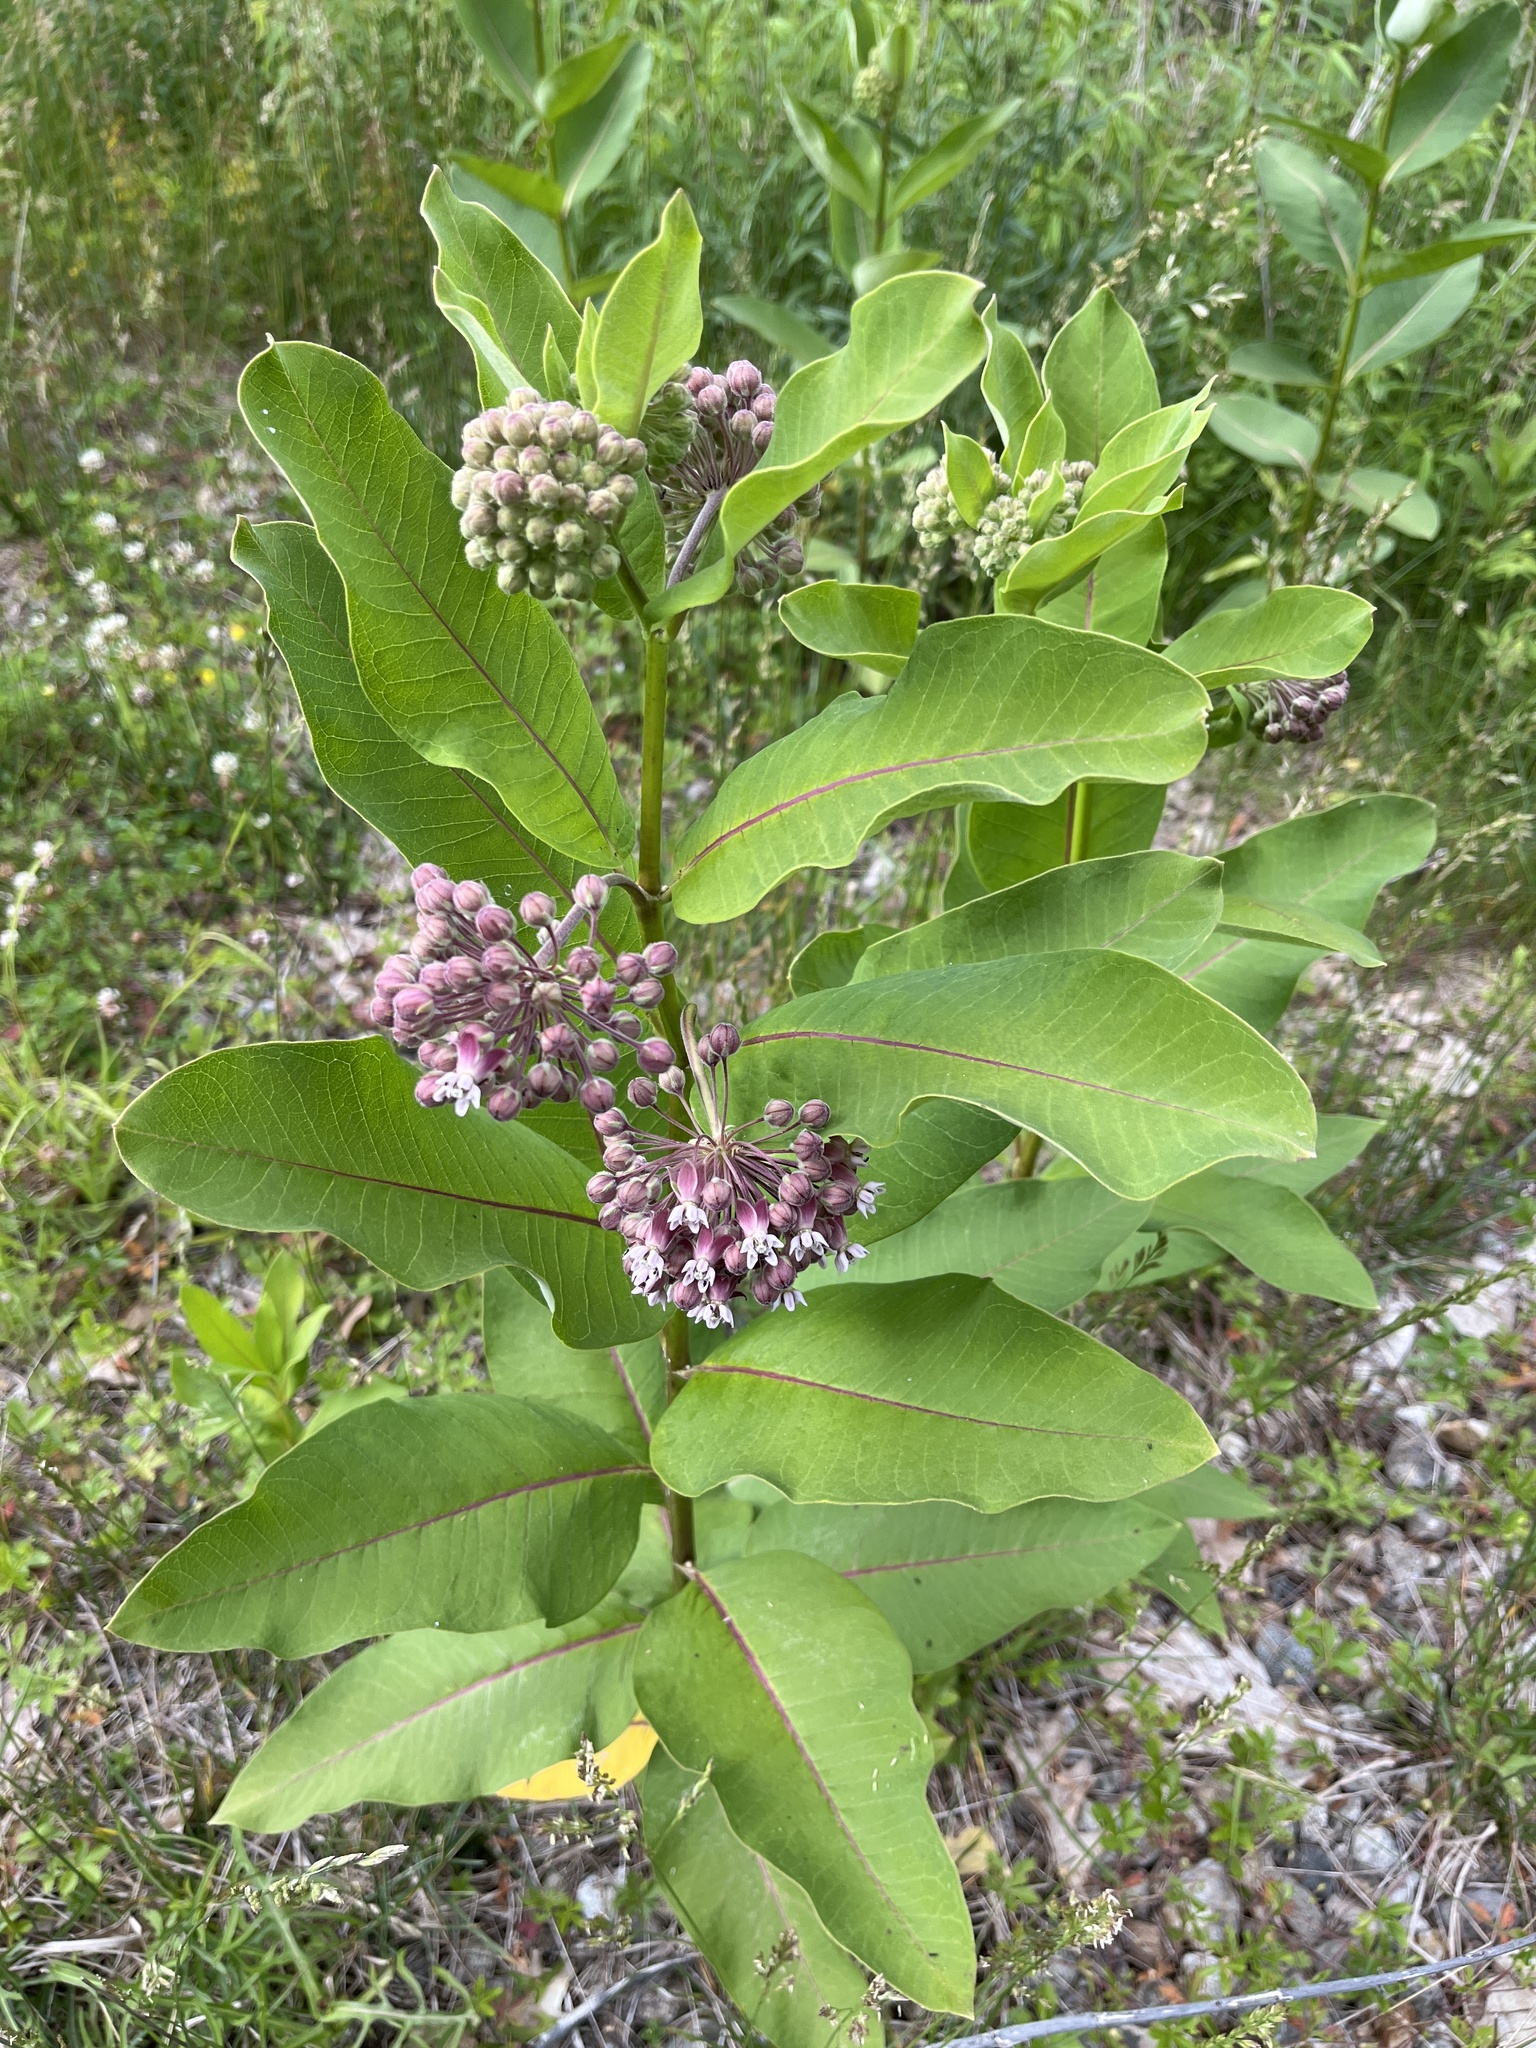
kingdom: Plantae
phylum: Tracheophyta
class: Magnoliopsida
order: Gentianales
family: Apocynaceae
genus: Asclepias
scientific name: Asclepias syriaca
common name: Common milkweed
